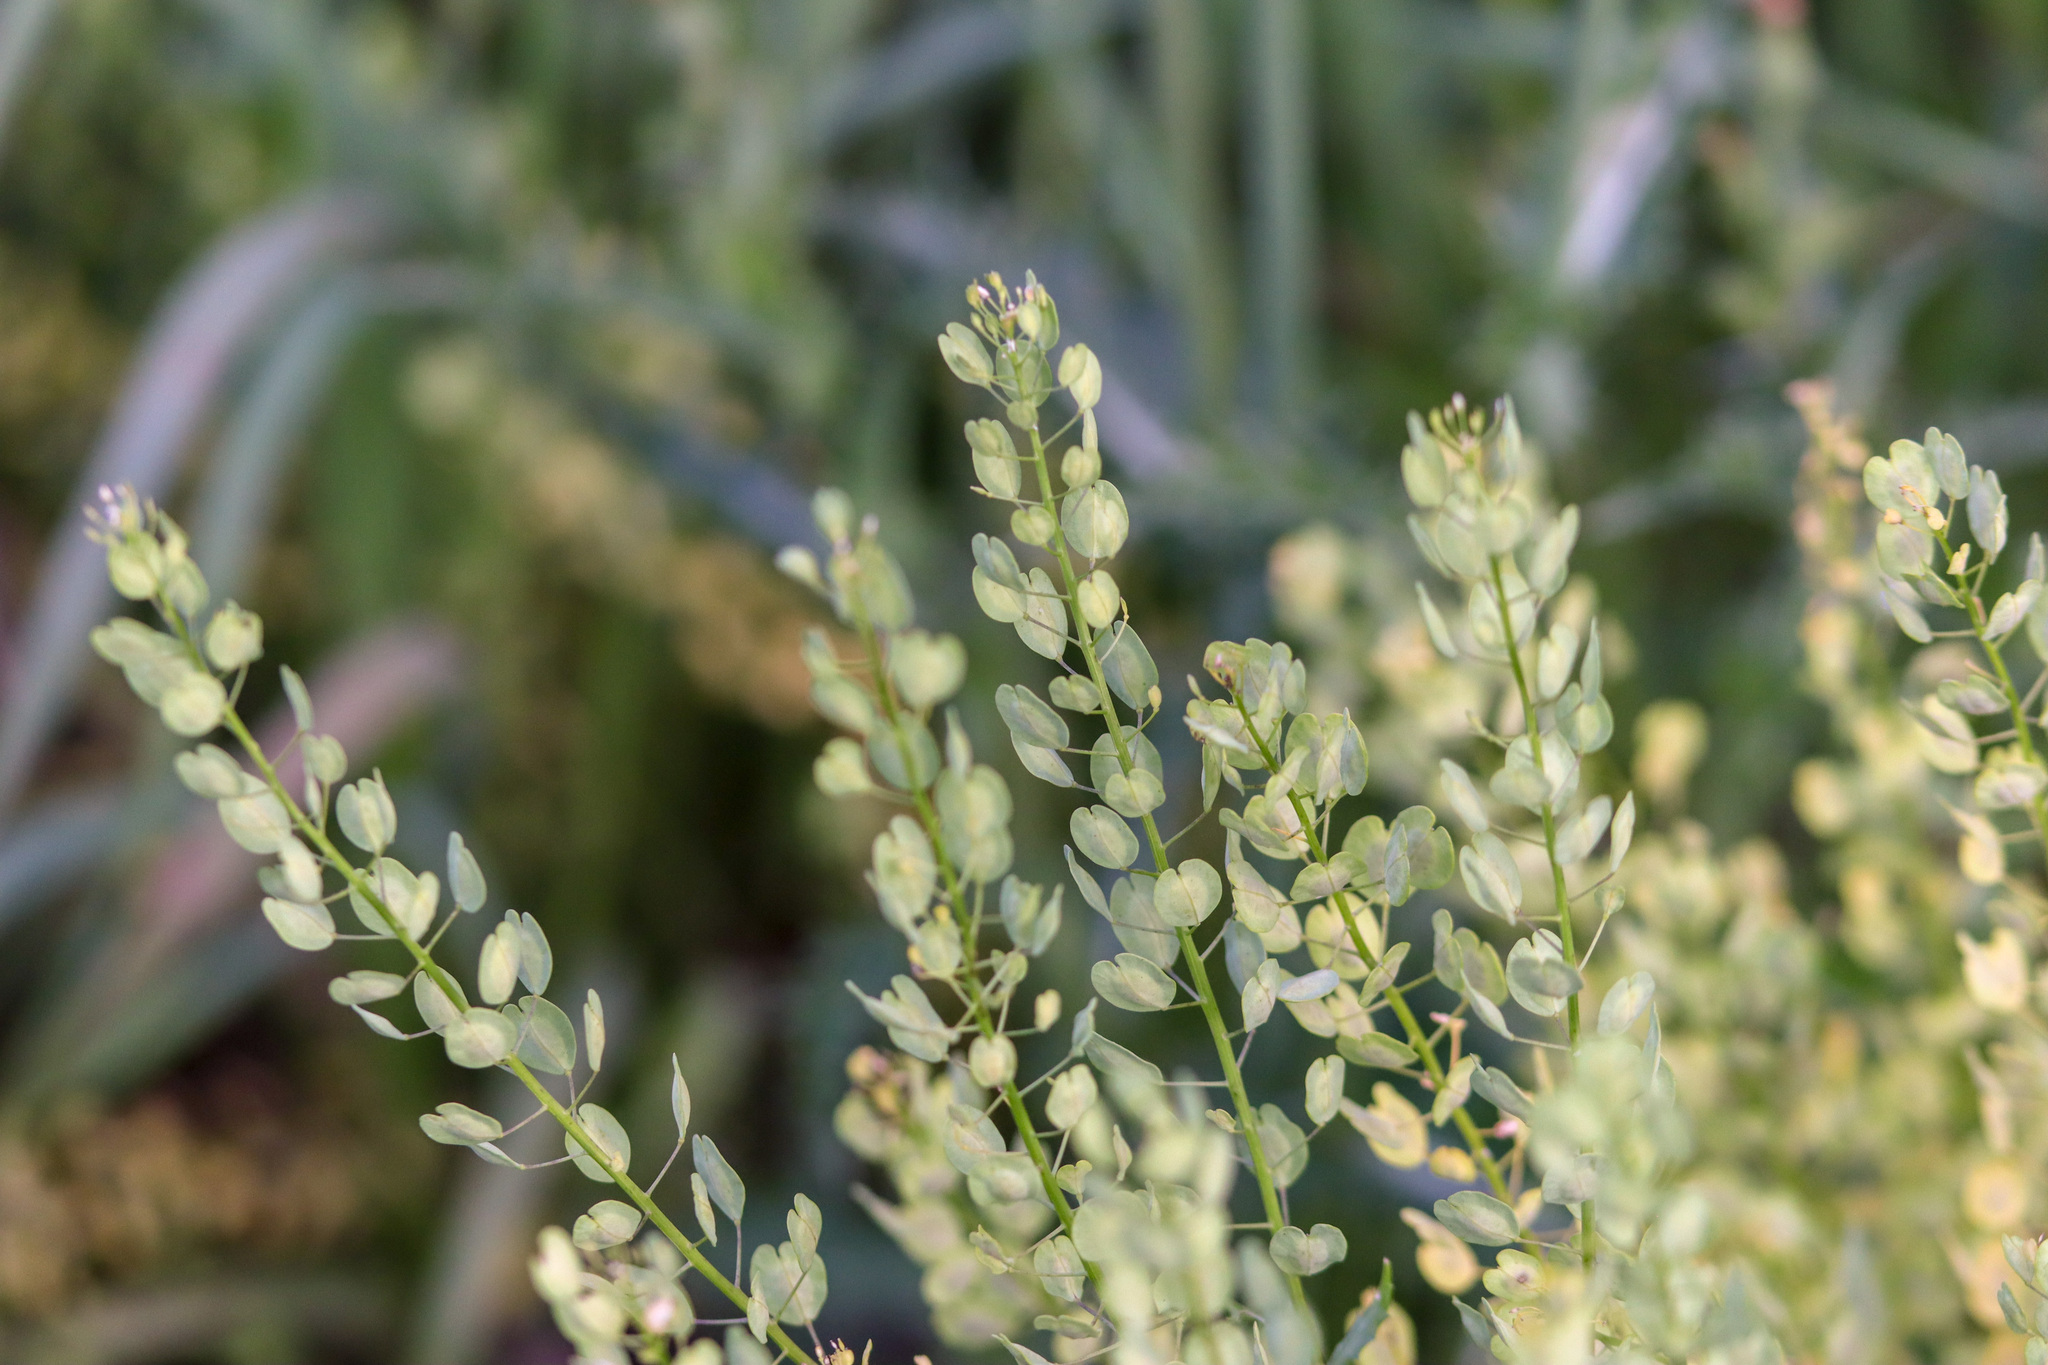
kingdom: Plantae
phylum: Tracheophyta
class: Magnoliopsida
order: Brassicales
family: Brassicaceae
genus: Thlaspi
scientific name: Thlaspi arvense
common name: Field pennycress
